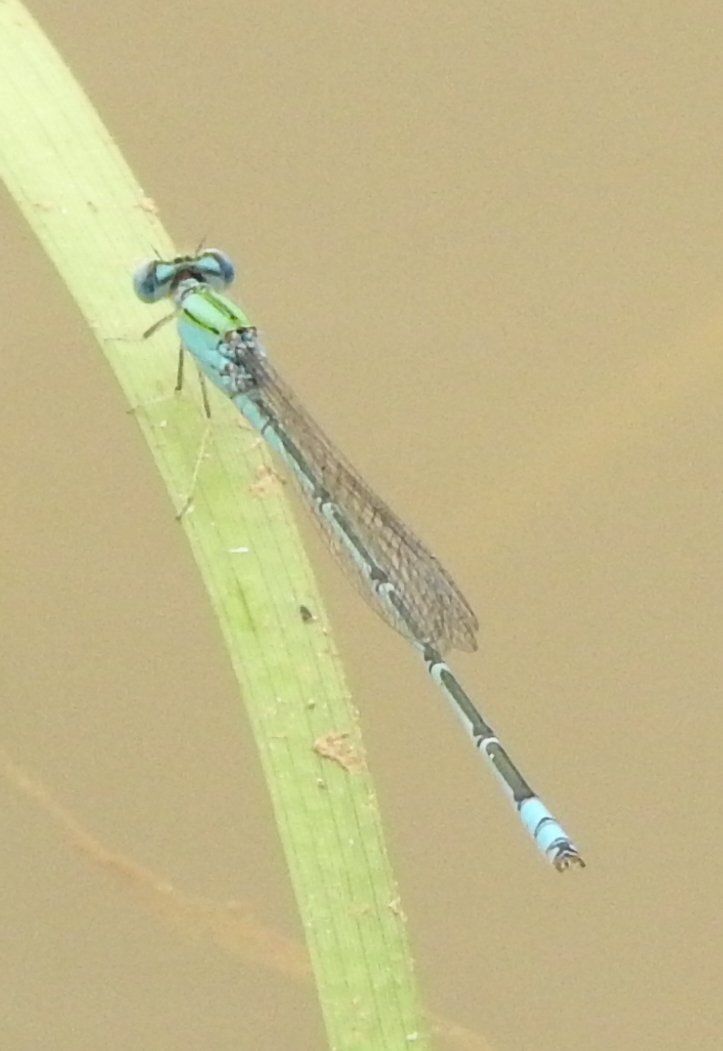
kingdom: Animalia
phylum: Arthropoda
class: Insecta
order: Odonata
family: Coenagrionidae
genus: Pseudagrion
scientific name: Pseudagrion decorum
